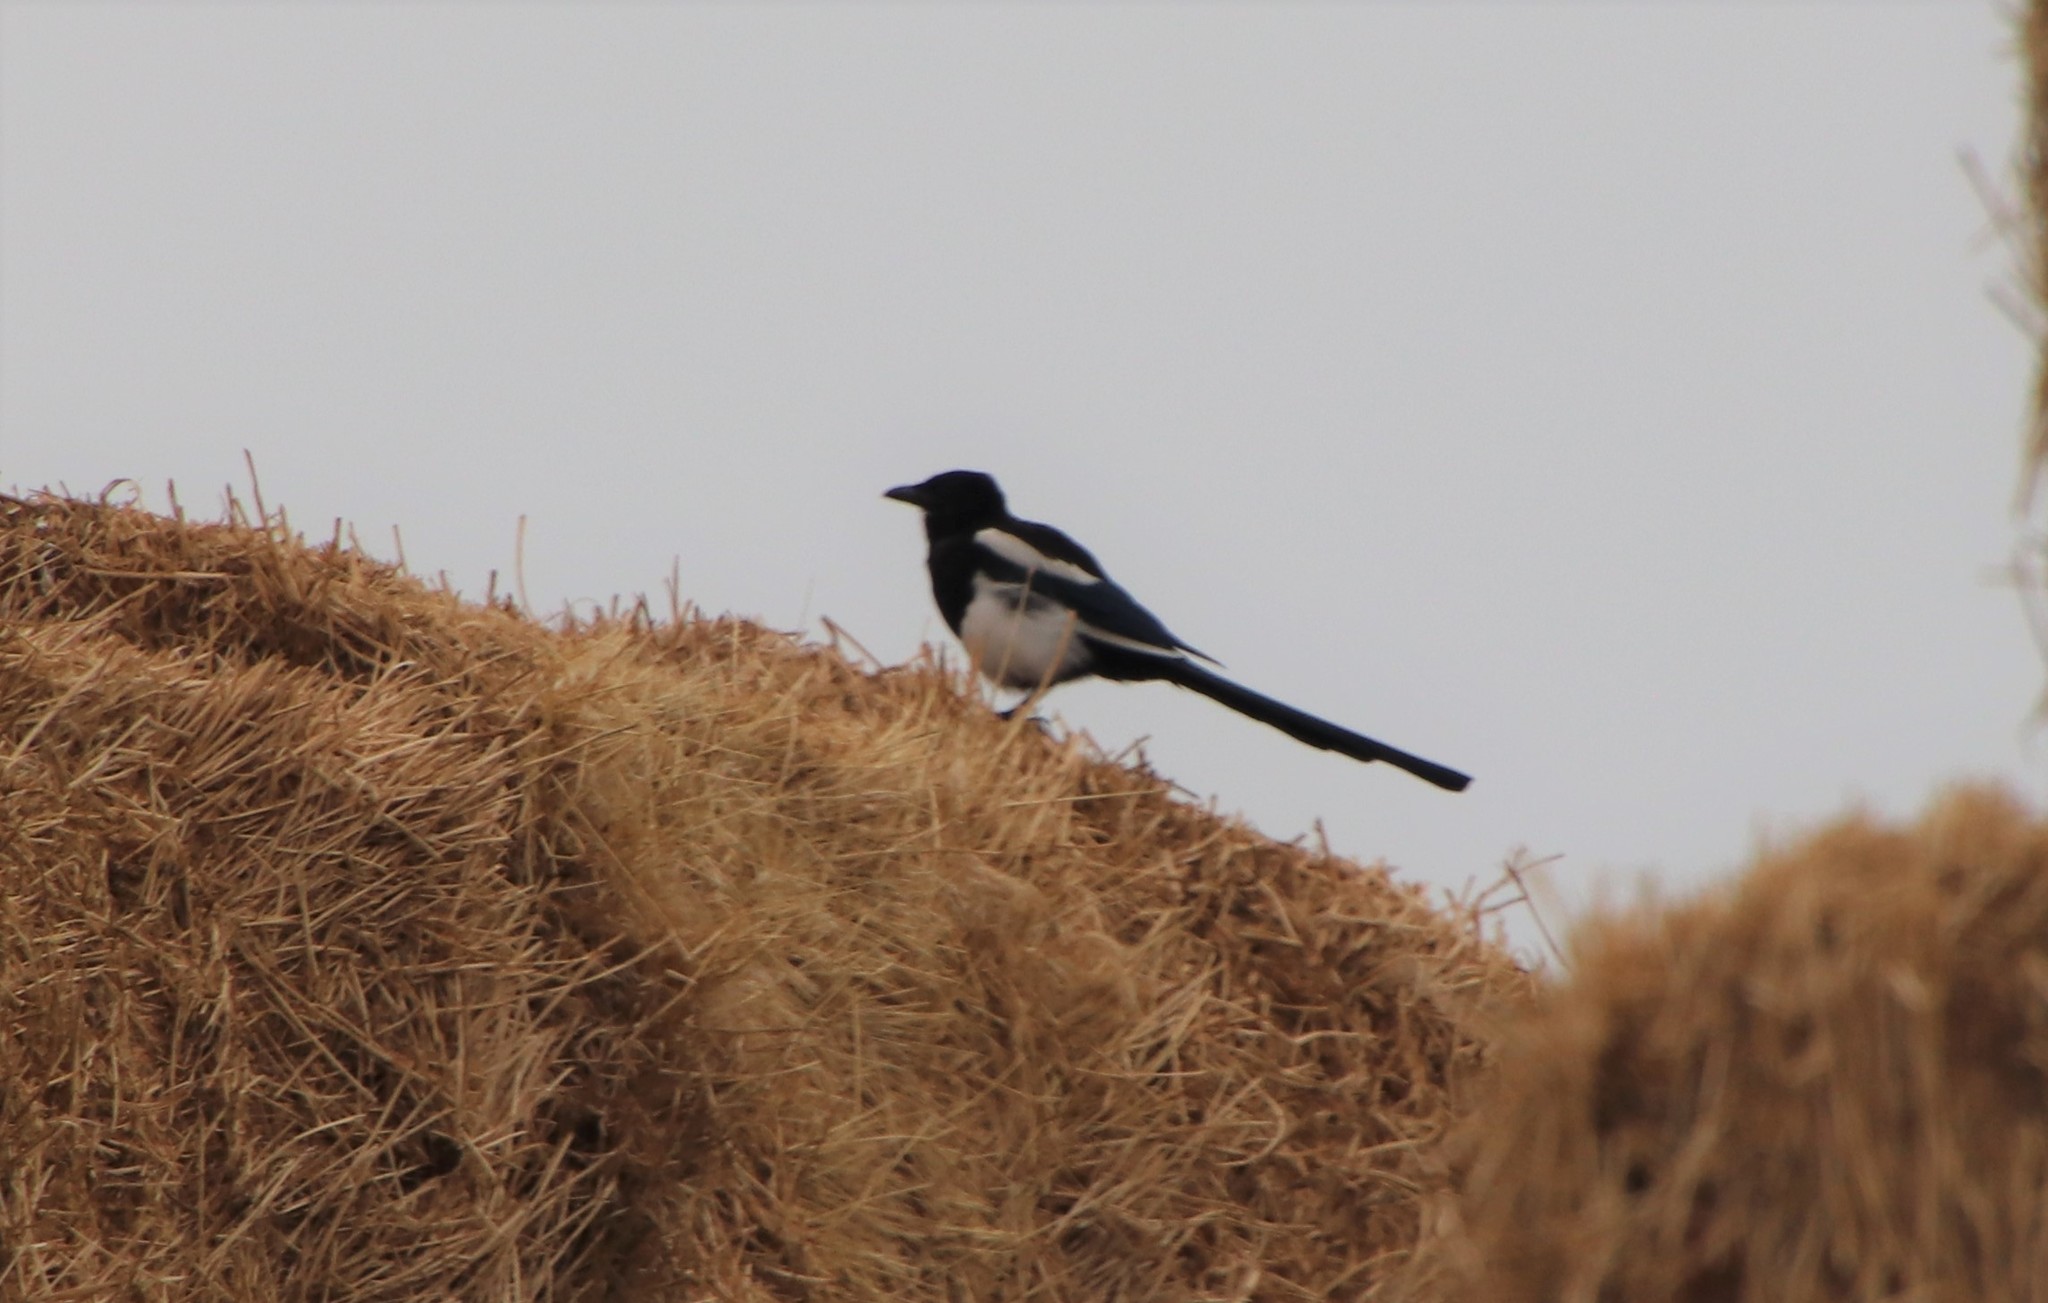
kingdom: Animalia
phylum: Chordata
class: Aves
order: Passeriformes
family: Corvidae
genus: Pica
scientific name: Pica hudsonia
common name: Black-billed magpie
